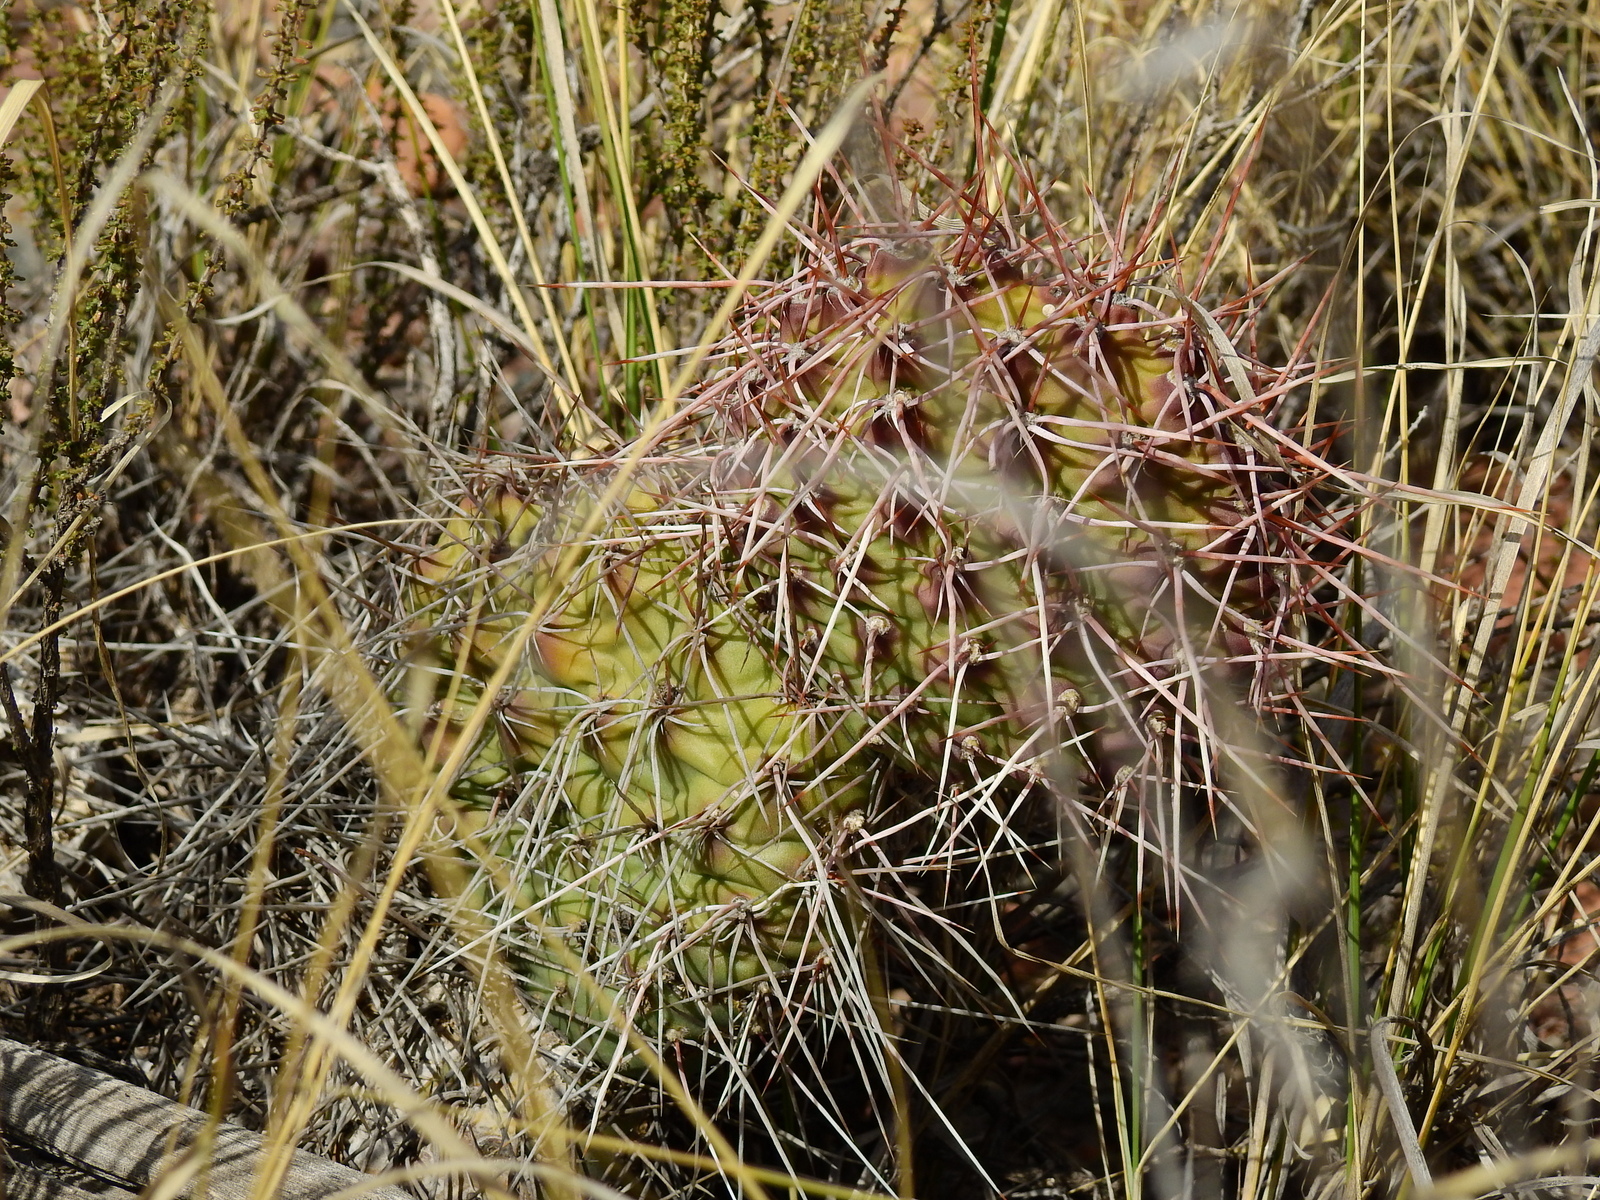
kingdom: Plantae
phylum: Tracheophyta
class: Magnoliopsida
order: Caryophyllales
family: Cactaceae
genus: Opuntia
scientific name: Opuntia sulphurea
